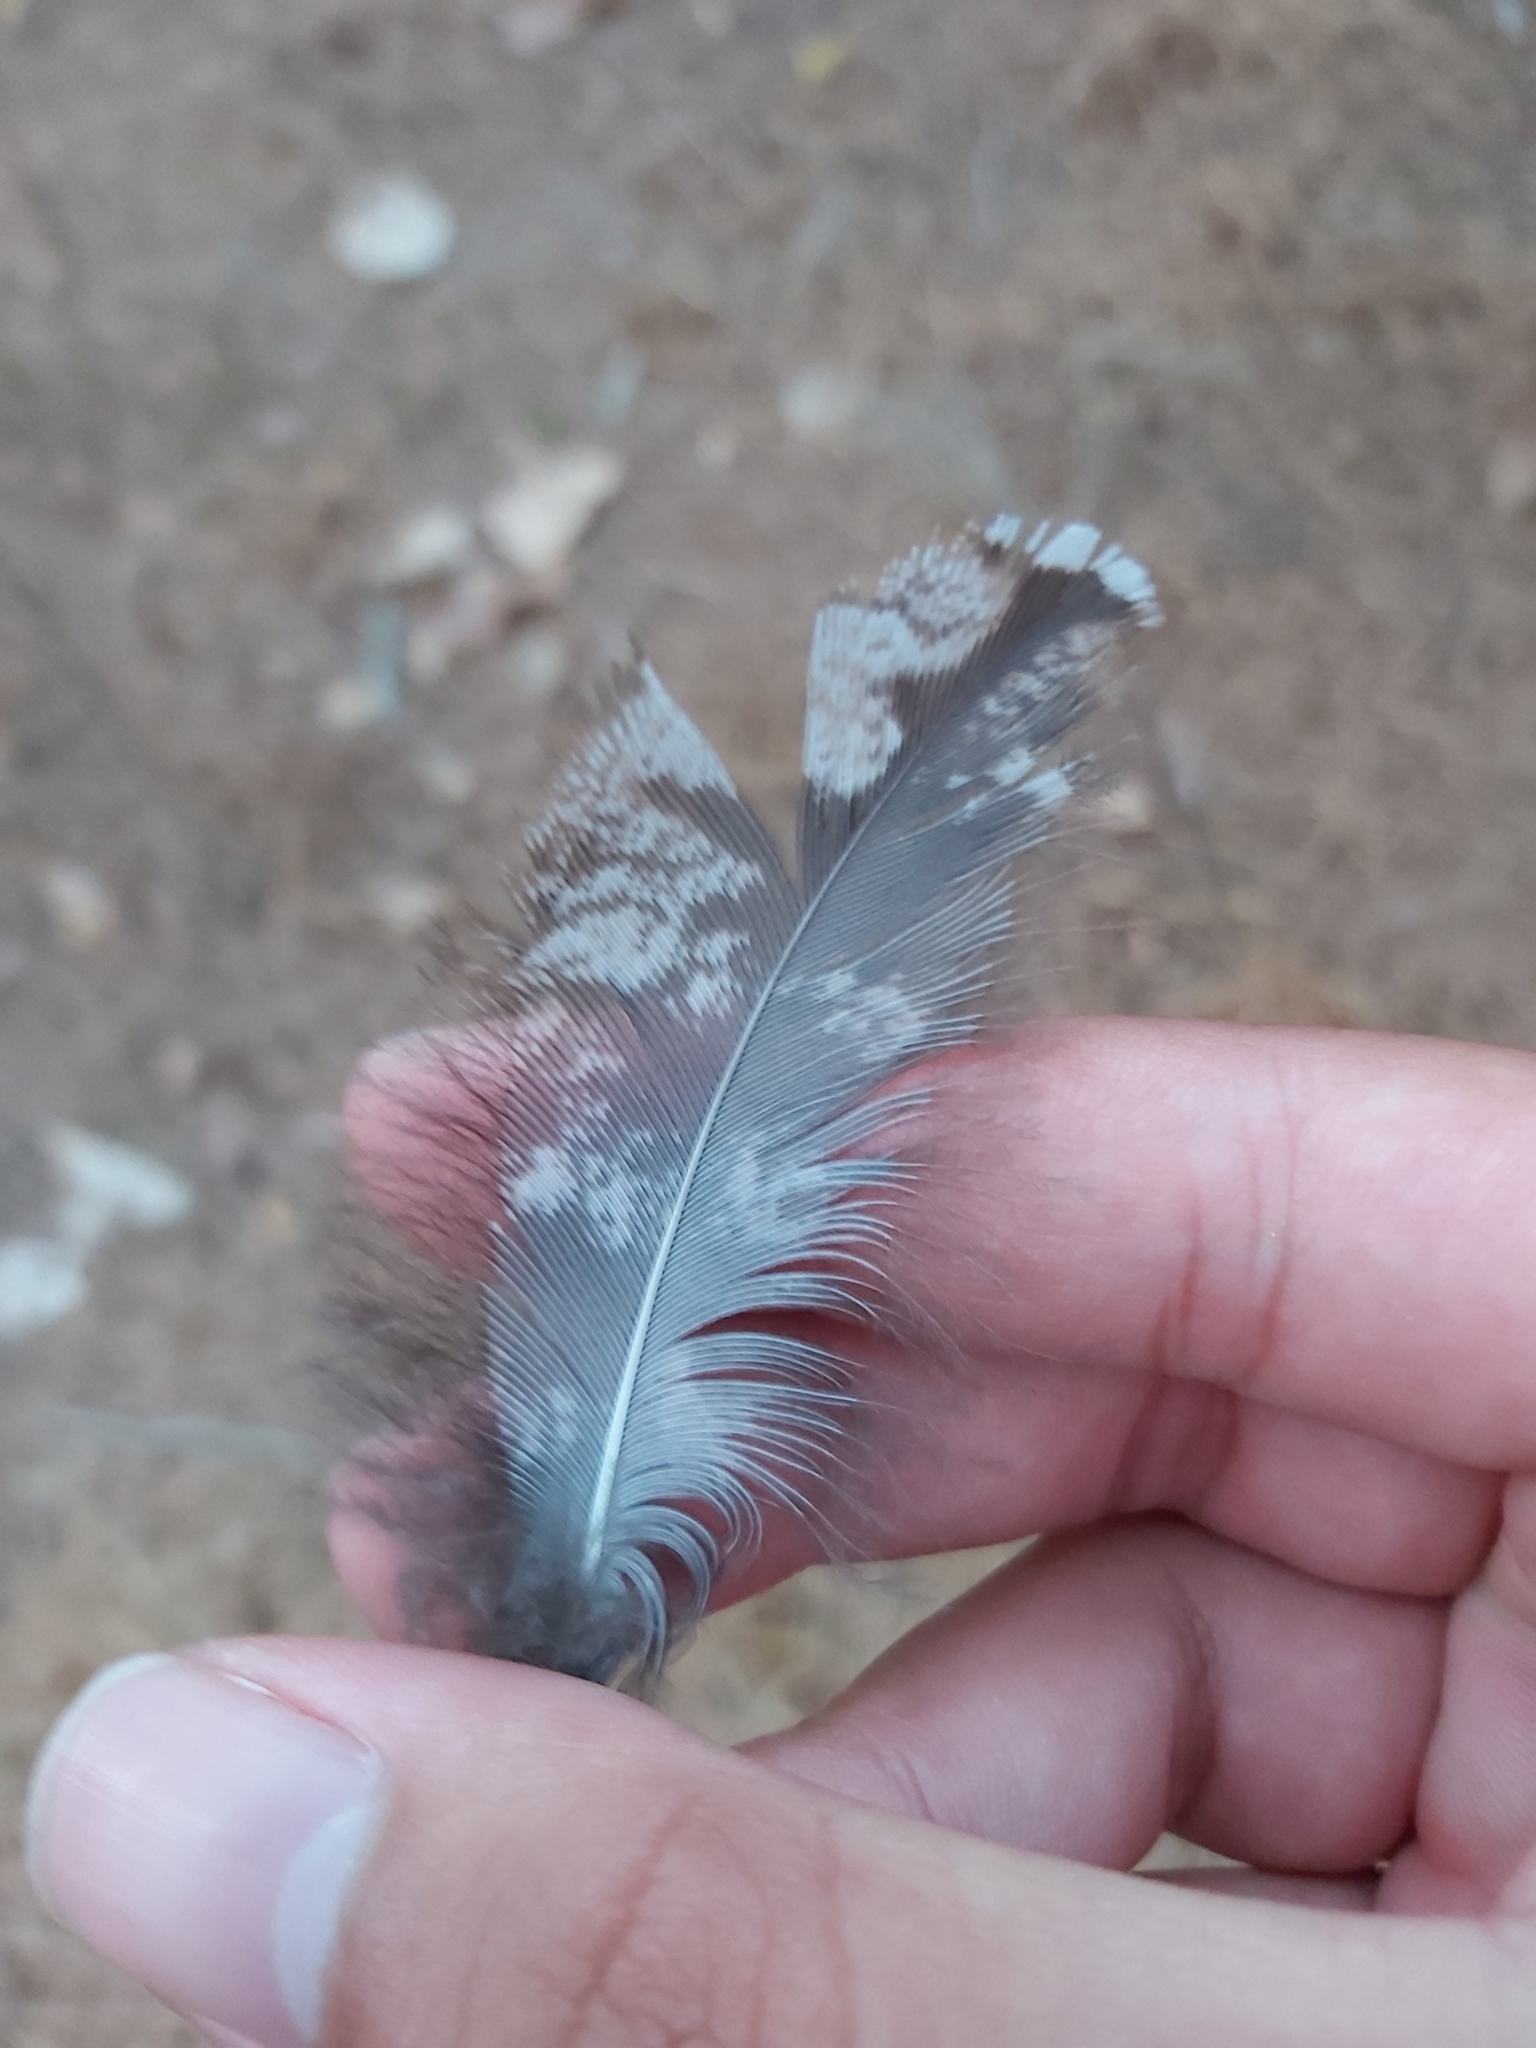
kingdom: Animalia
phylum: Chordata
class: Aves
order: Caprimulgiformes
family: Podargidae
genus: Podargus
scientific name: Podargus strigoides
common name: Tawny frogmouth
